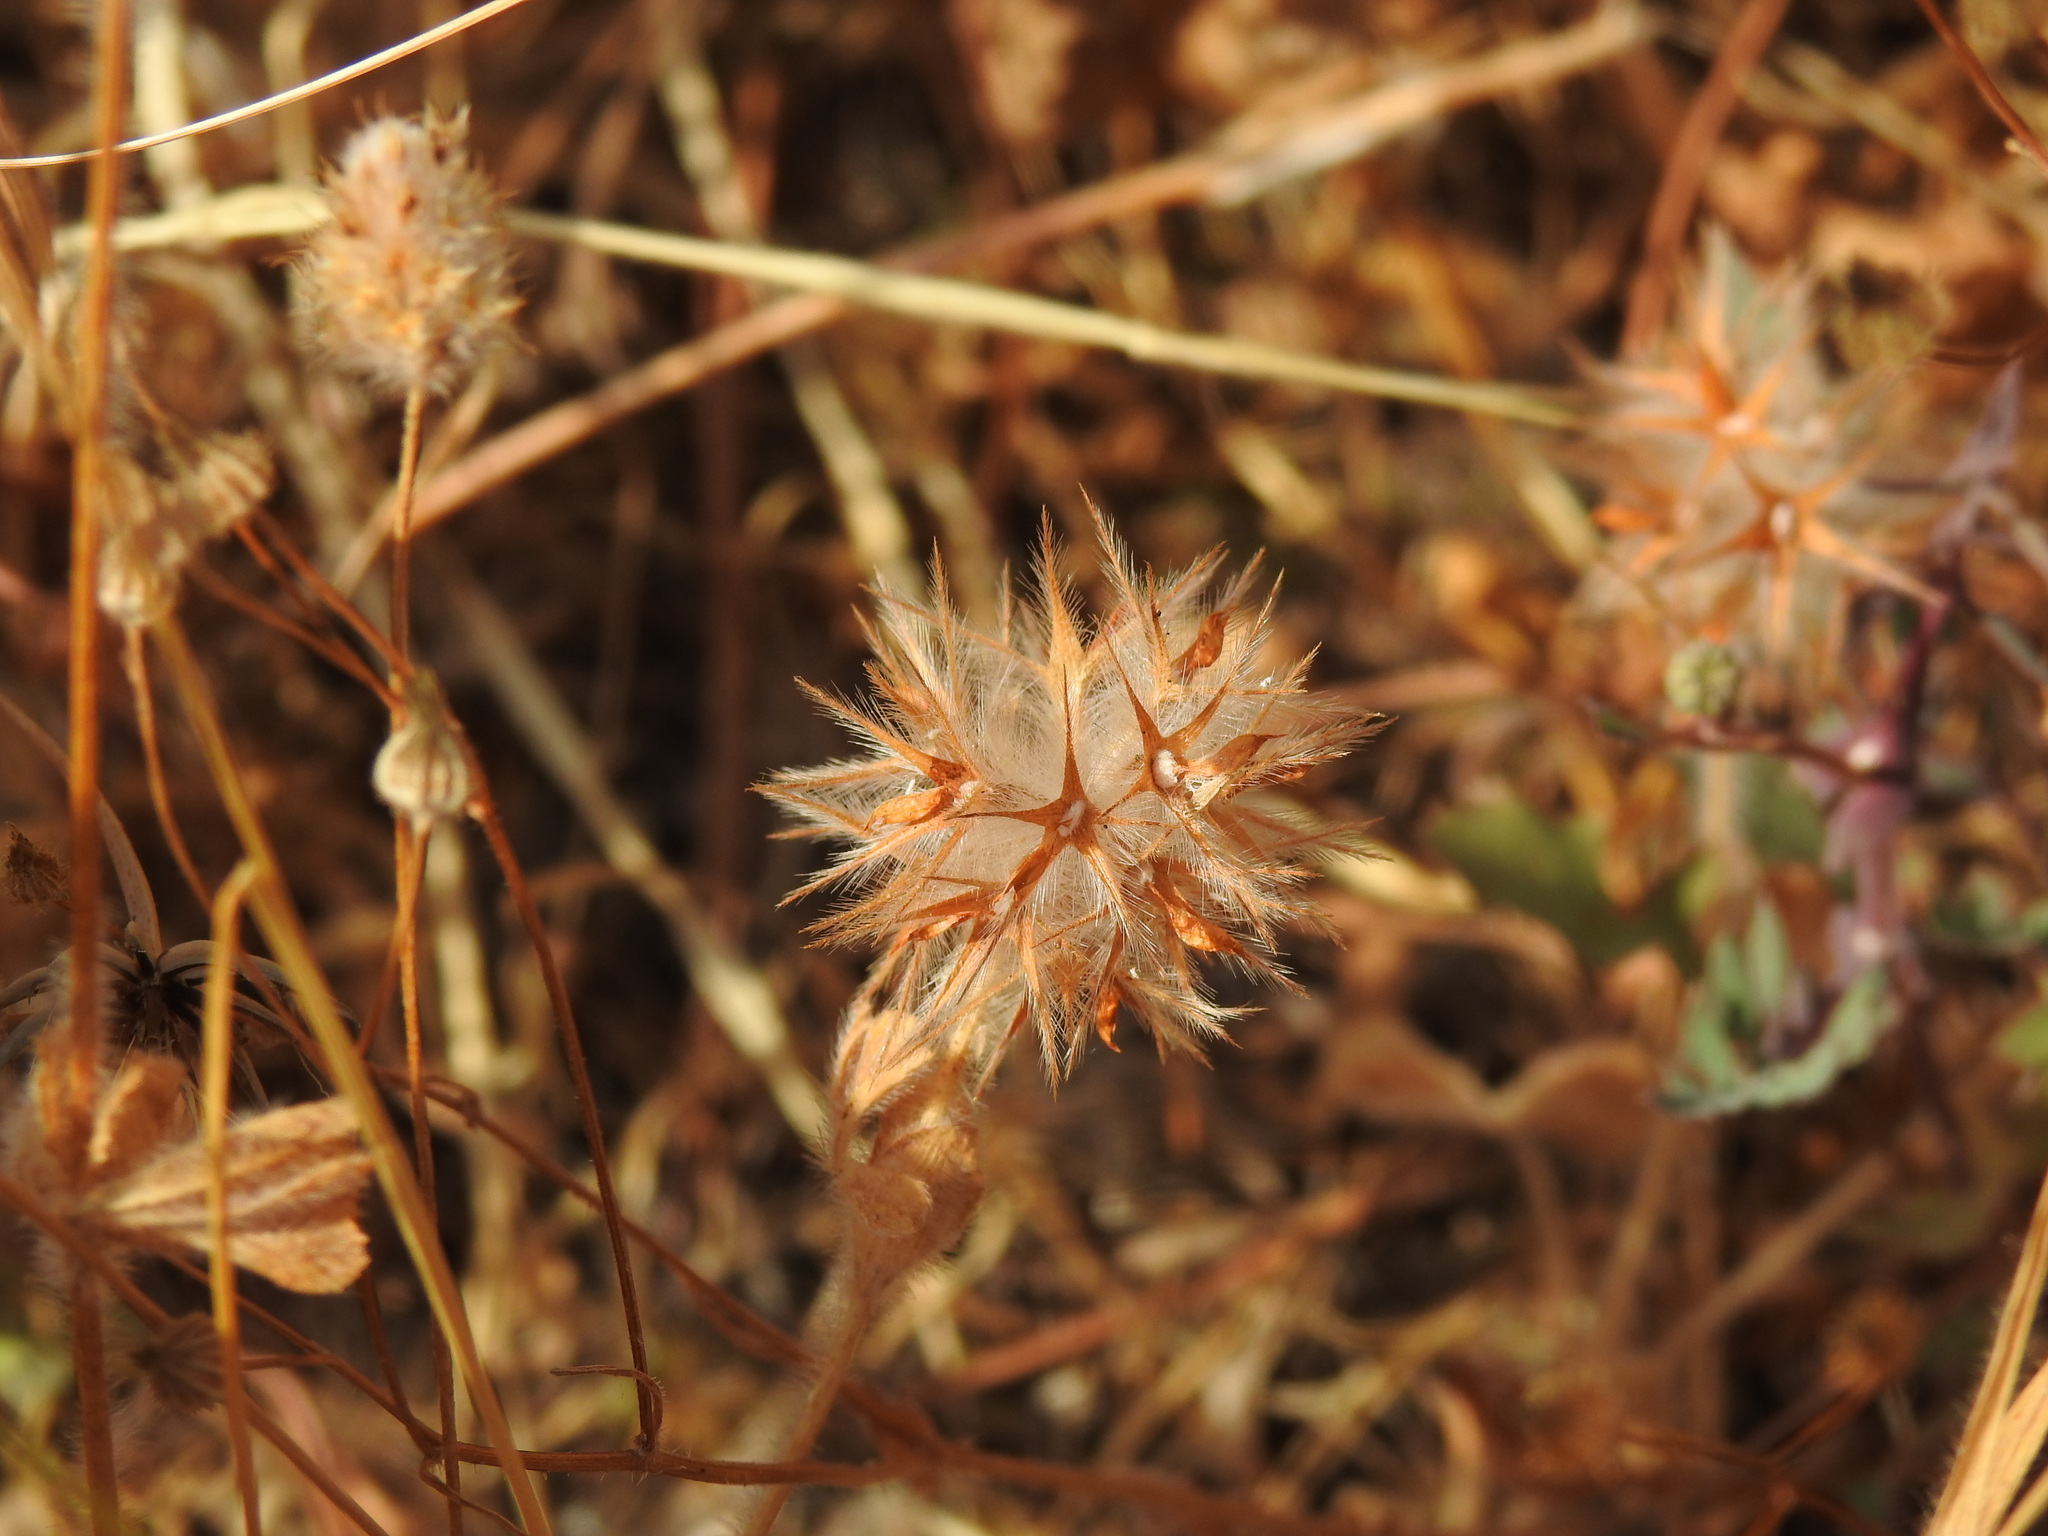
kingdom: Plantae
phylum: Tracheophyta
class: Magnoliopsida
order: Fabales
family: Fabaceae
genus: Trifolium
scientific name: Trifolium stellatum
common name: Starry clover
